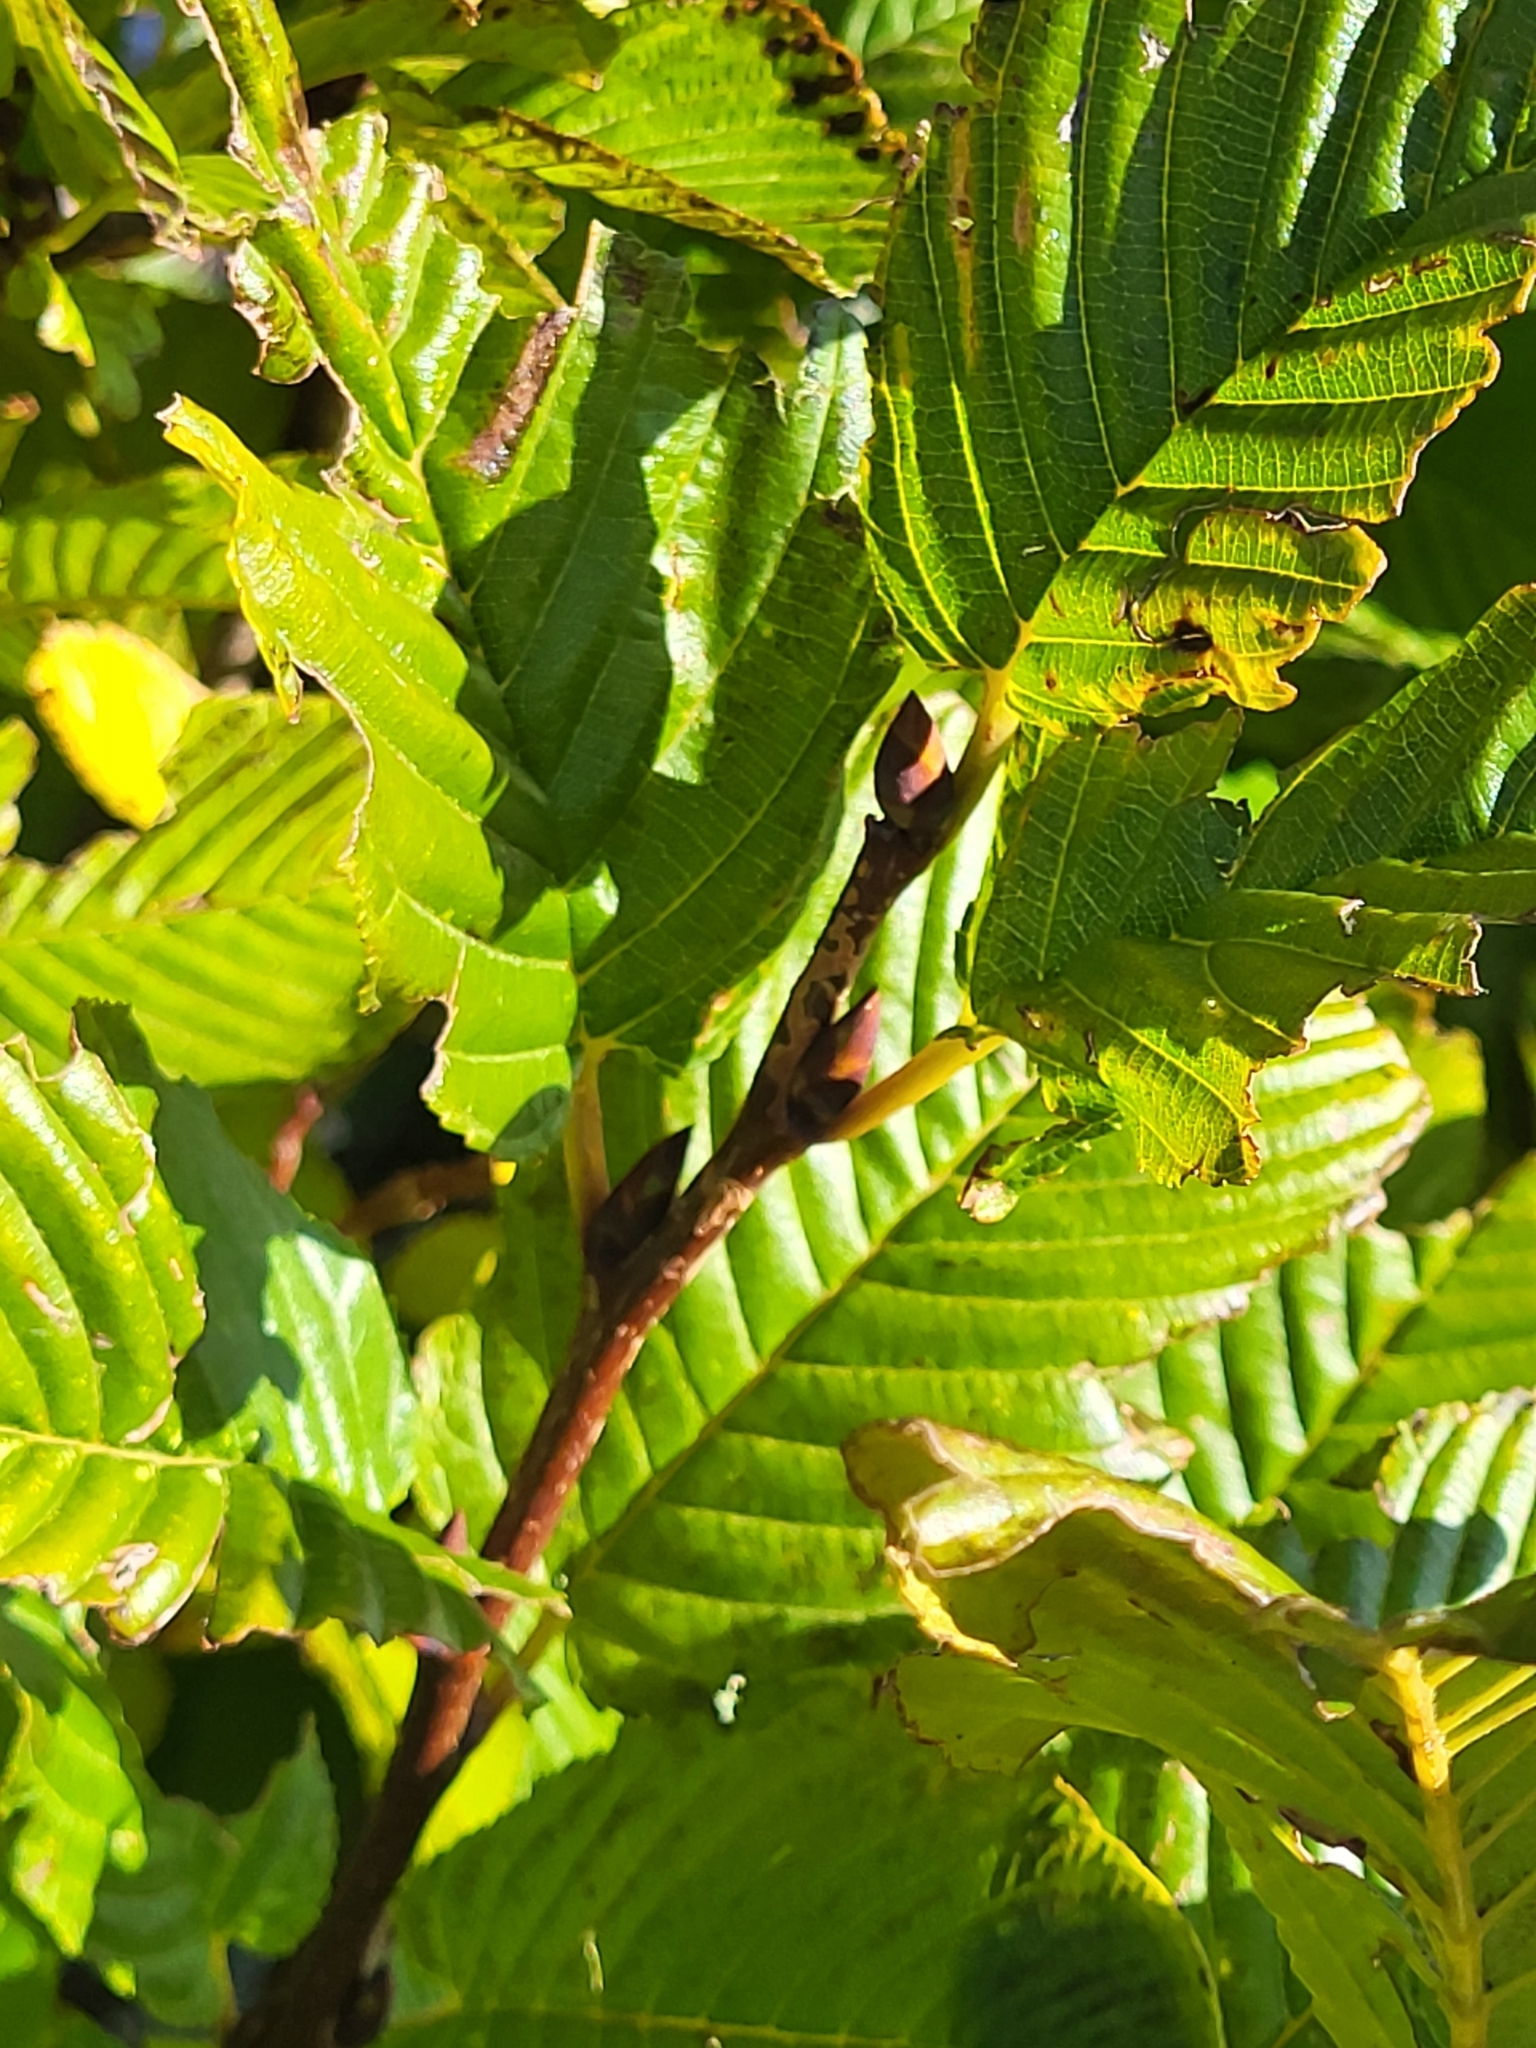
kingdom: Plantae
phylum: Tracheophyta
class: Magnoliopsida
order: Rosales
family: Rhamnaceae
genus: Atadinus
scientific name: Atadinus fallax
